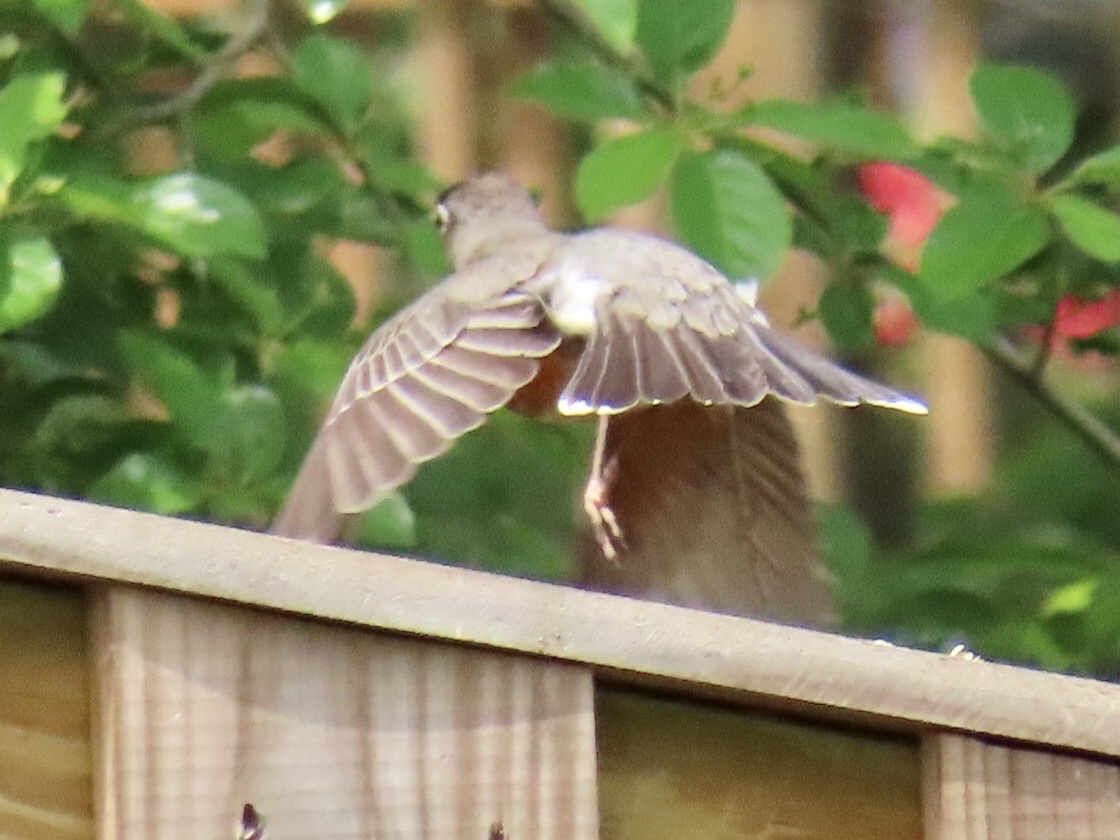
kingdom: Animalia
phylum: Chordata
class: Aves
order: Passeriformes
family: Turdidae
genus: Turdus
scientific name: Turdus migratorius
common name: American robin
